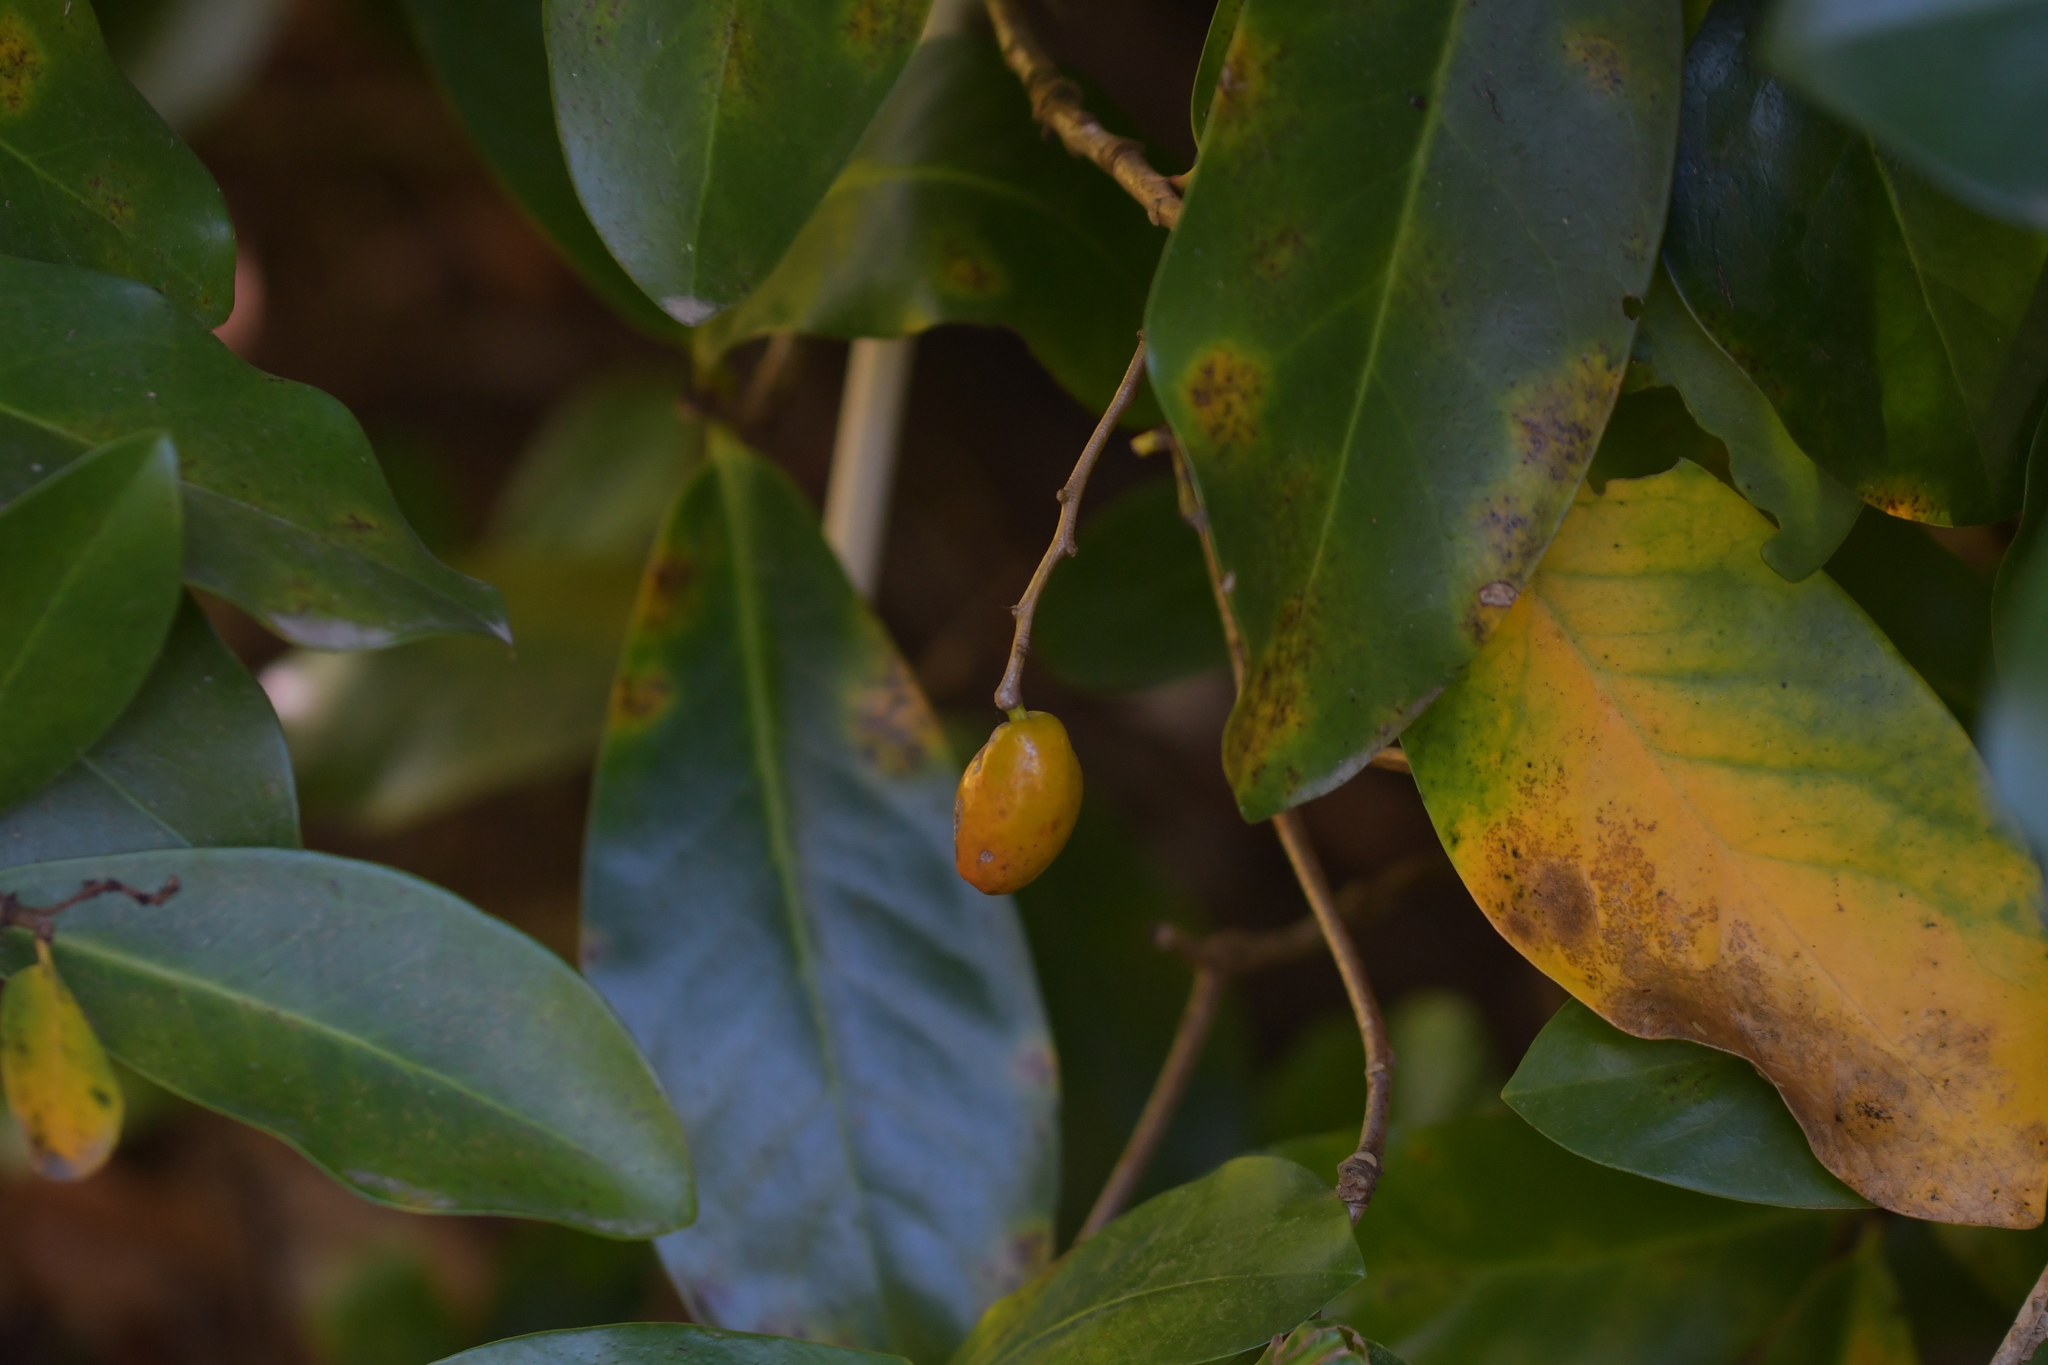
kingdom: Plantae
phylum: Tracheophyta
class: Magnoliopsida
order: Cucurbitales
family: Corynocarpaceae
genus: Corynocarpus
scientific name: Corynocarpus laevigatus
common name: New zealand laurel
